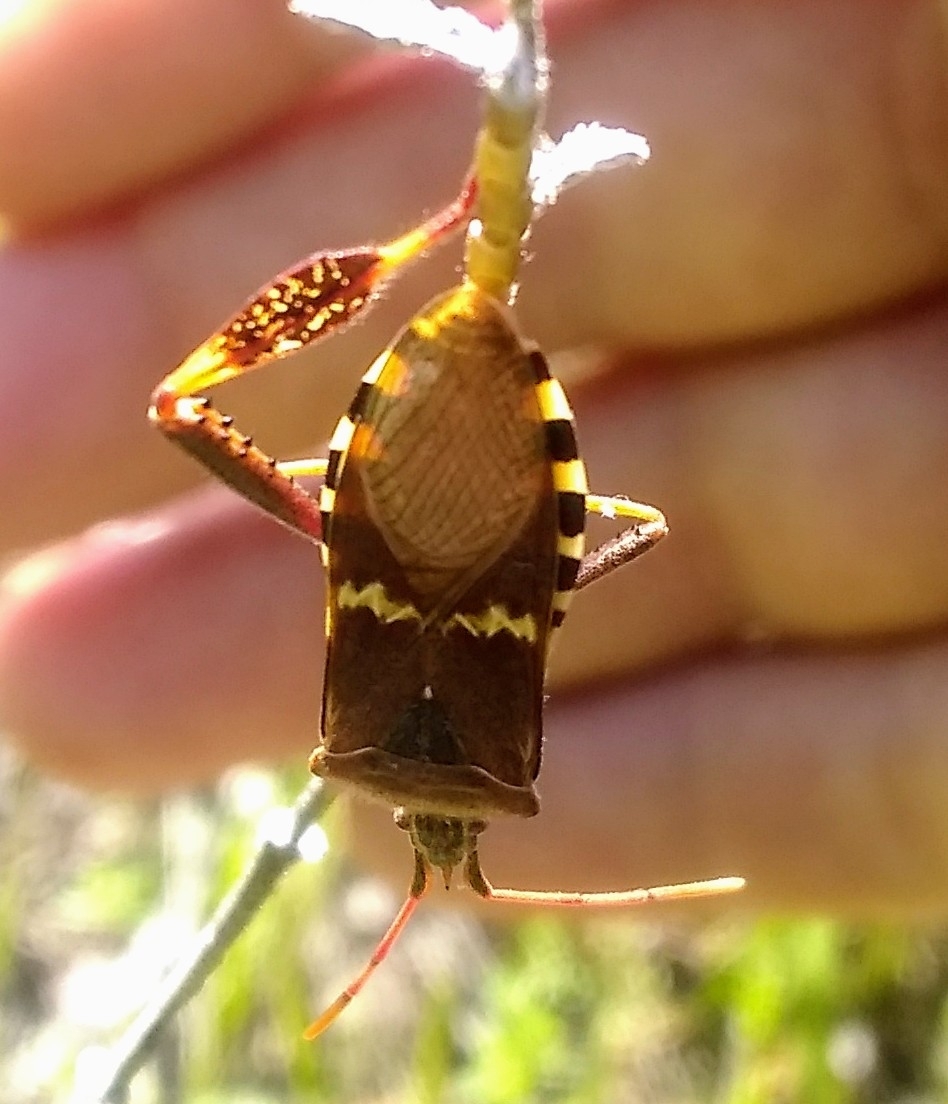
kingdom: Animalia
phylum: Arthropoda
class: Insecta
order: Hemiptera
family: Coreidae
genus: Leptoglossus
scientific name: Leptoglossus clypealis
